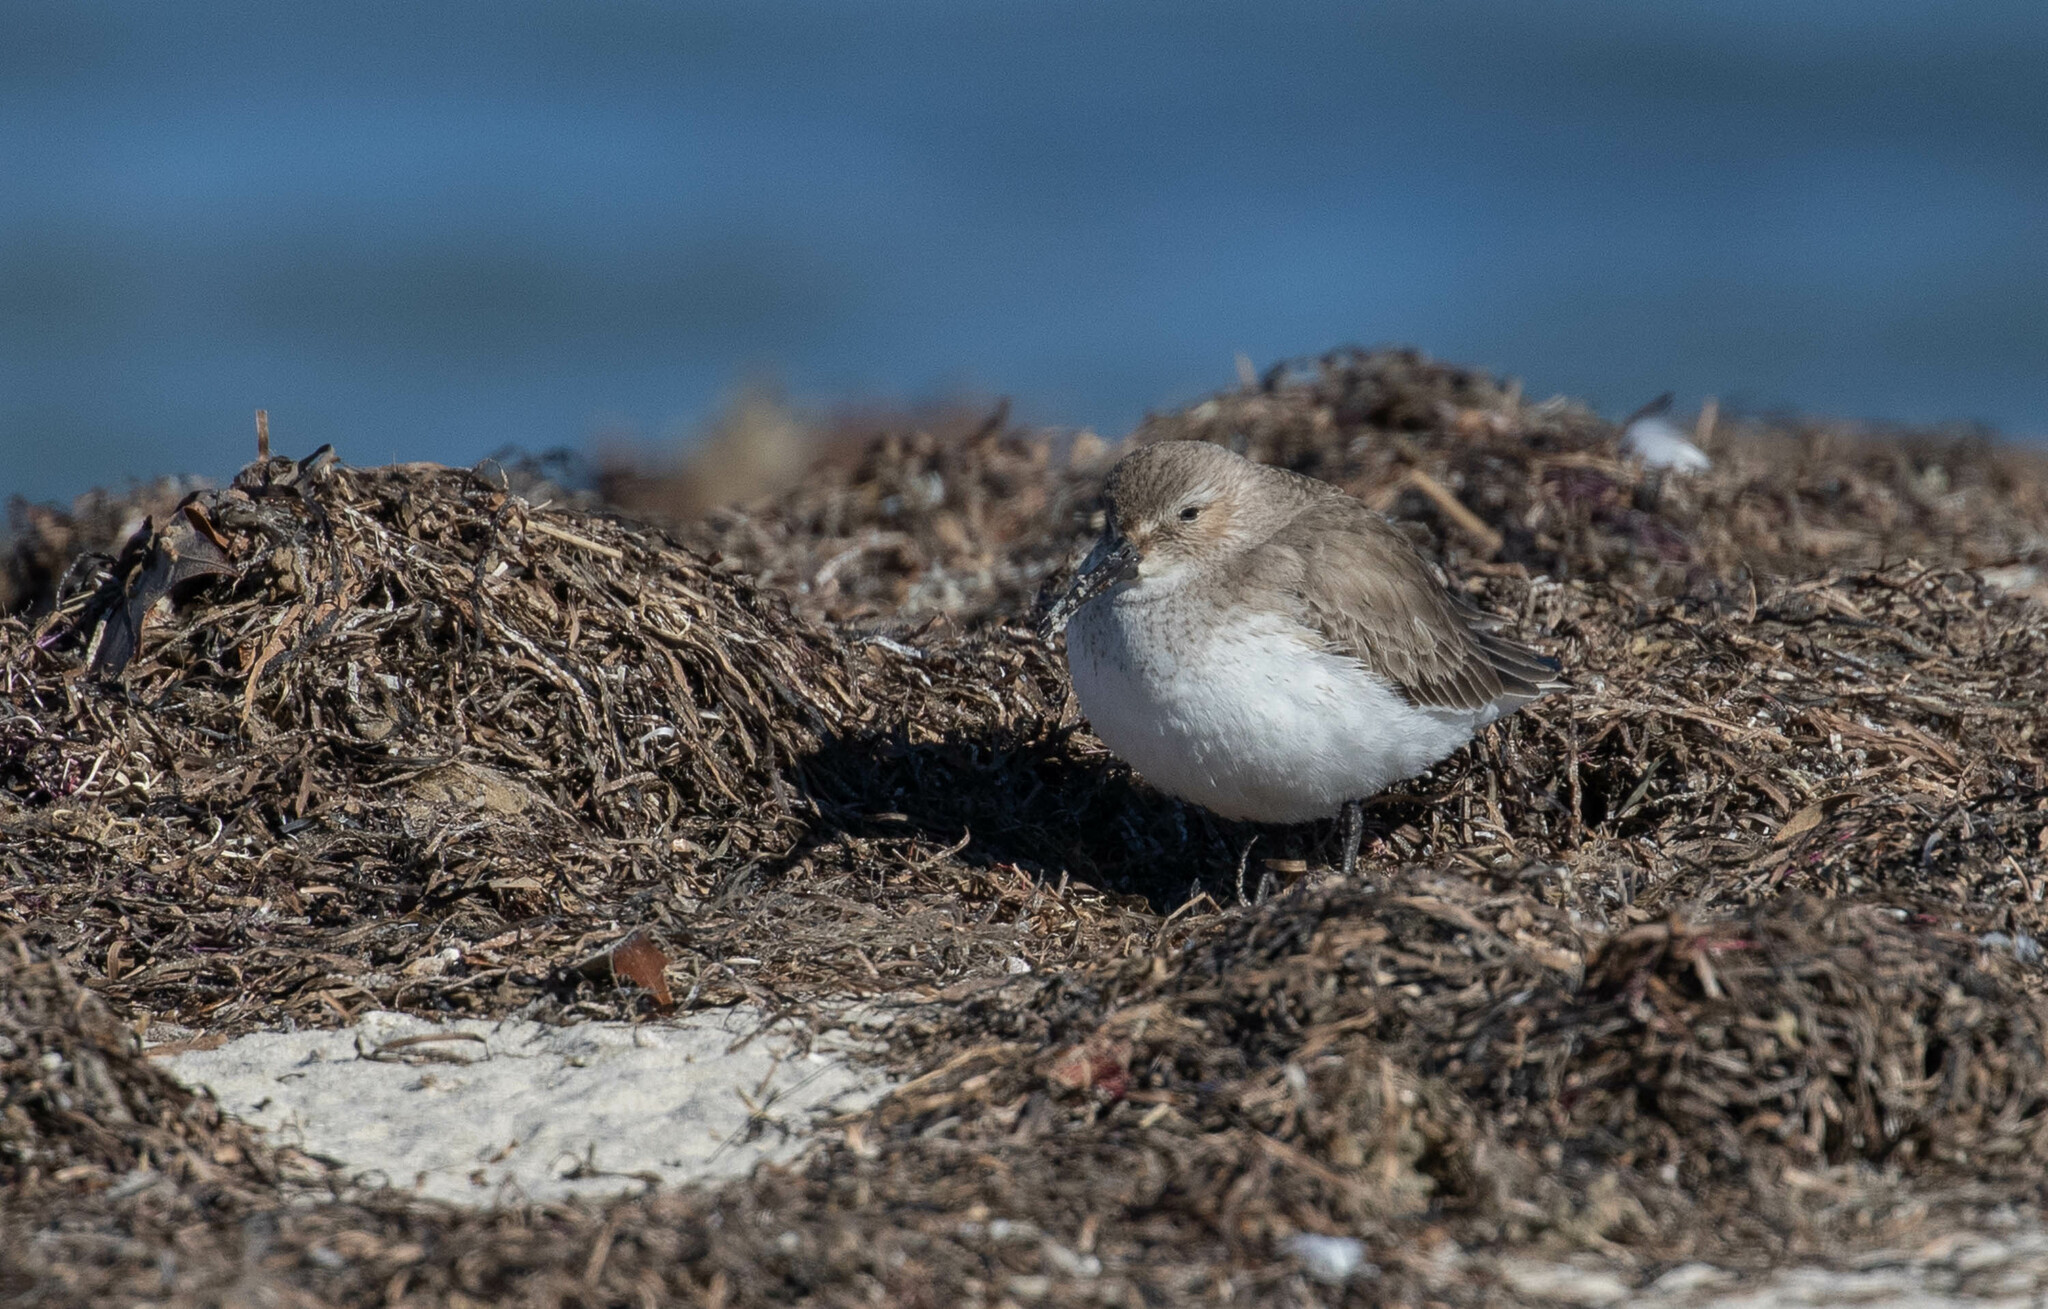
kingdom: Animalia
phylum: Chordata
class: Aves
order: Charadriiformes
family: Scolopacidae
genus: Calidris
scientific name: Calidris alpina
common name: Dunlin
